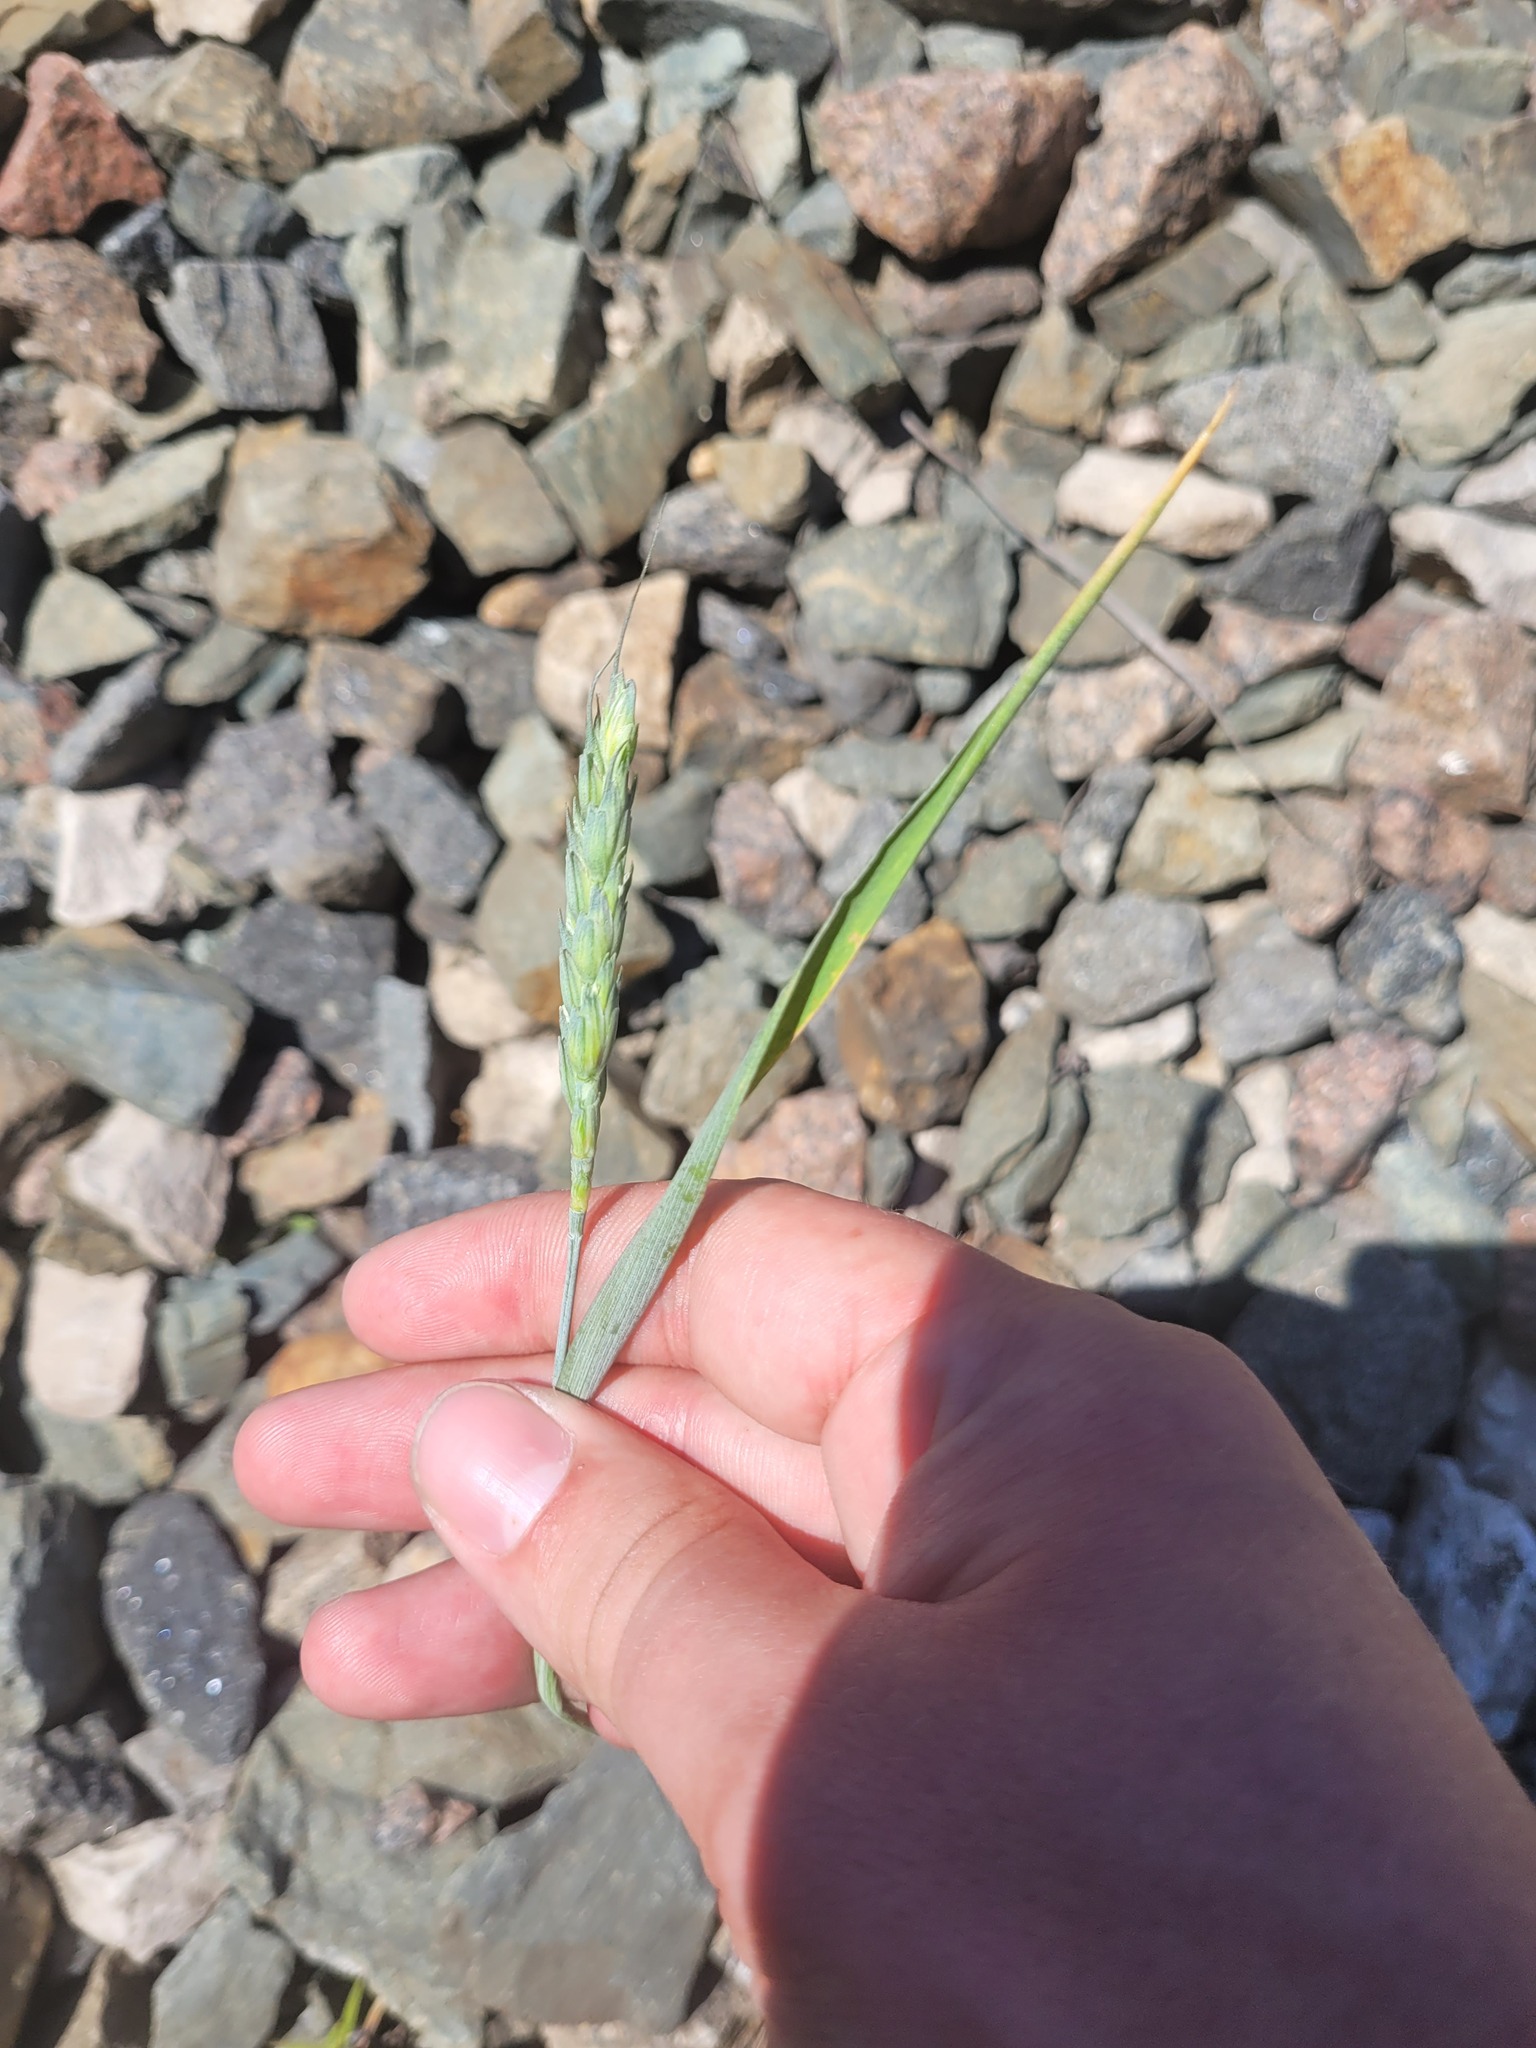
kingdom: Plantae
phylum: Tracheophyta
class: Liliopsida
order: Poales
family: Poaceae
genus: Triticum
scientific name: Triticum aestivum
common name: Common wheat
